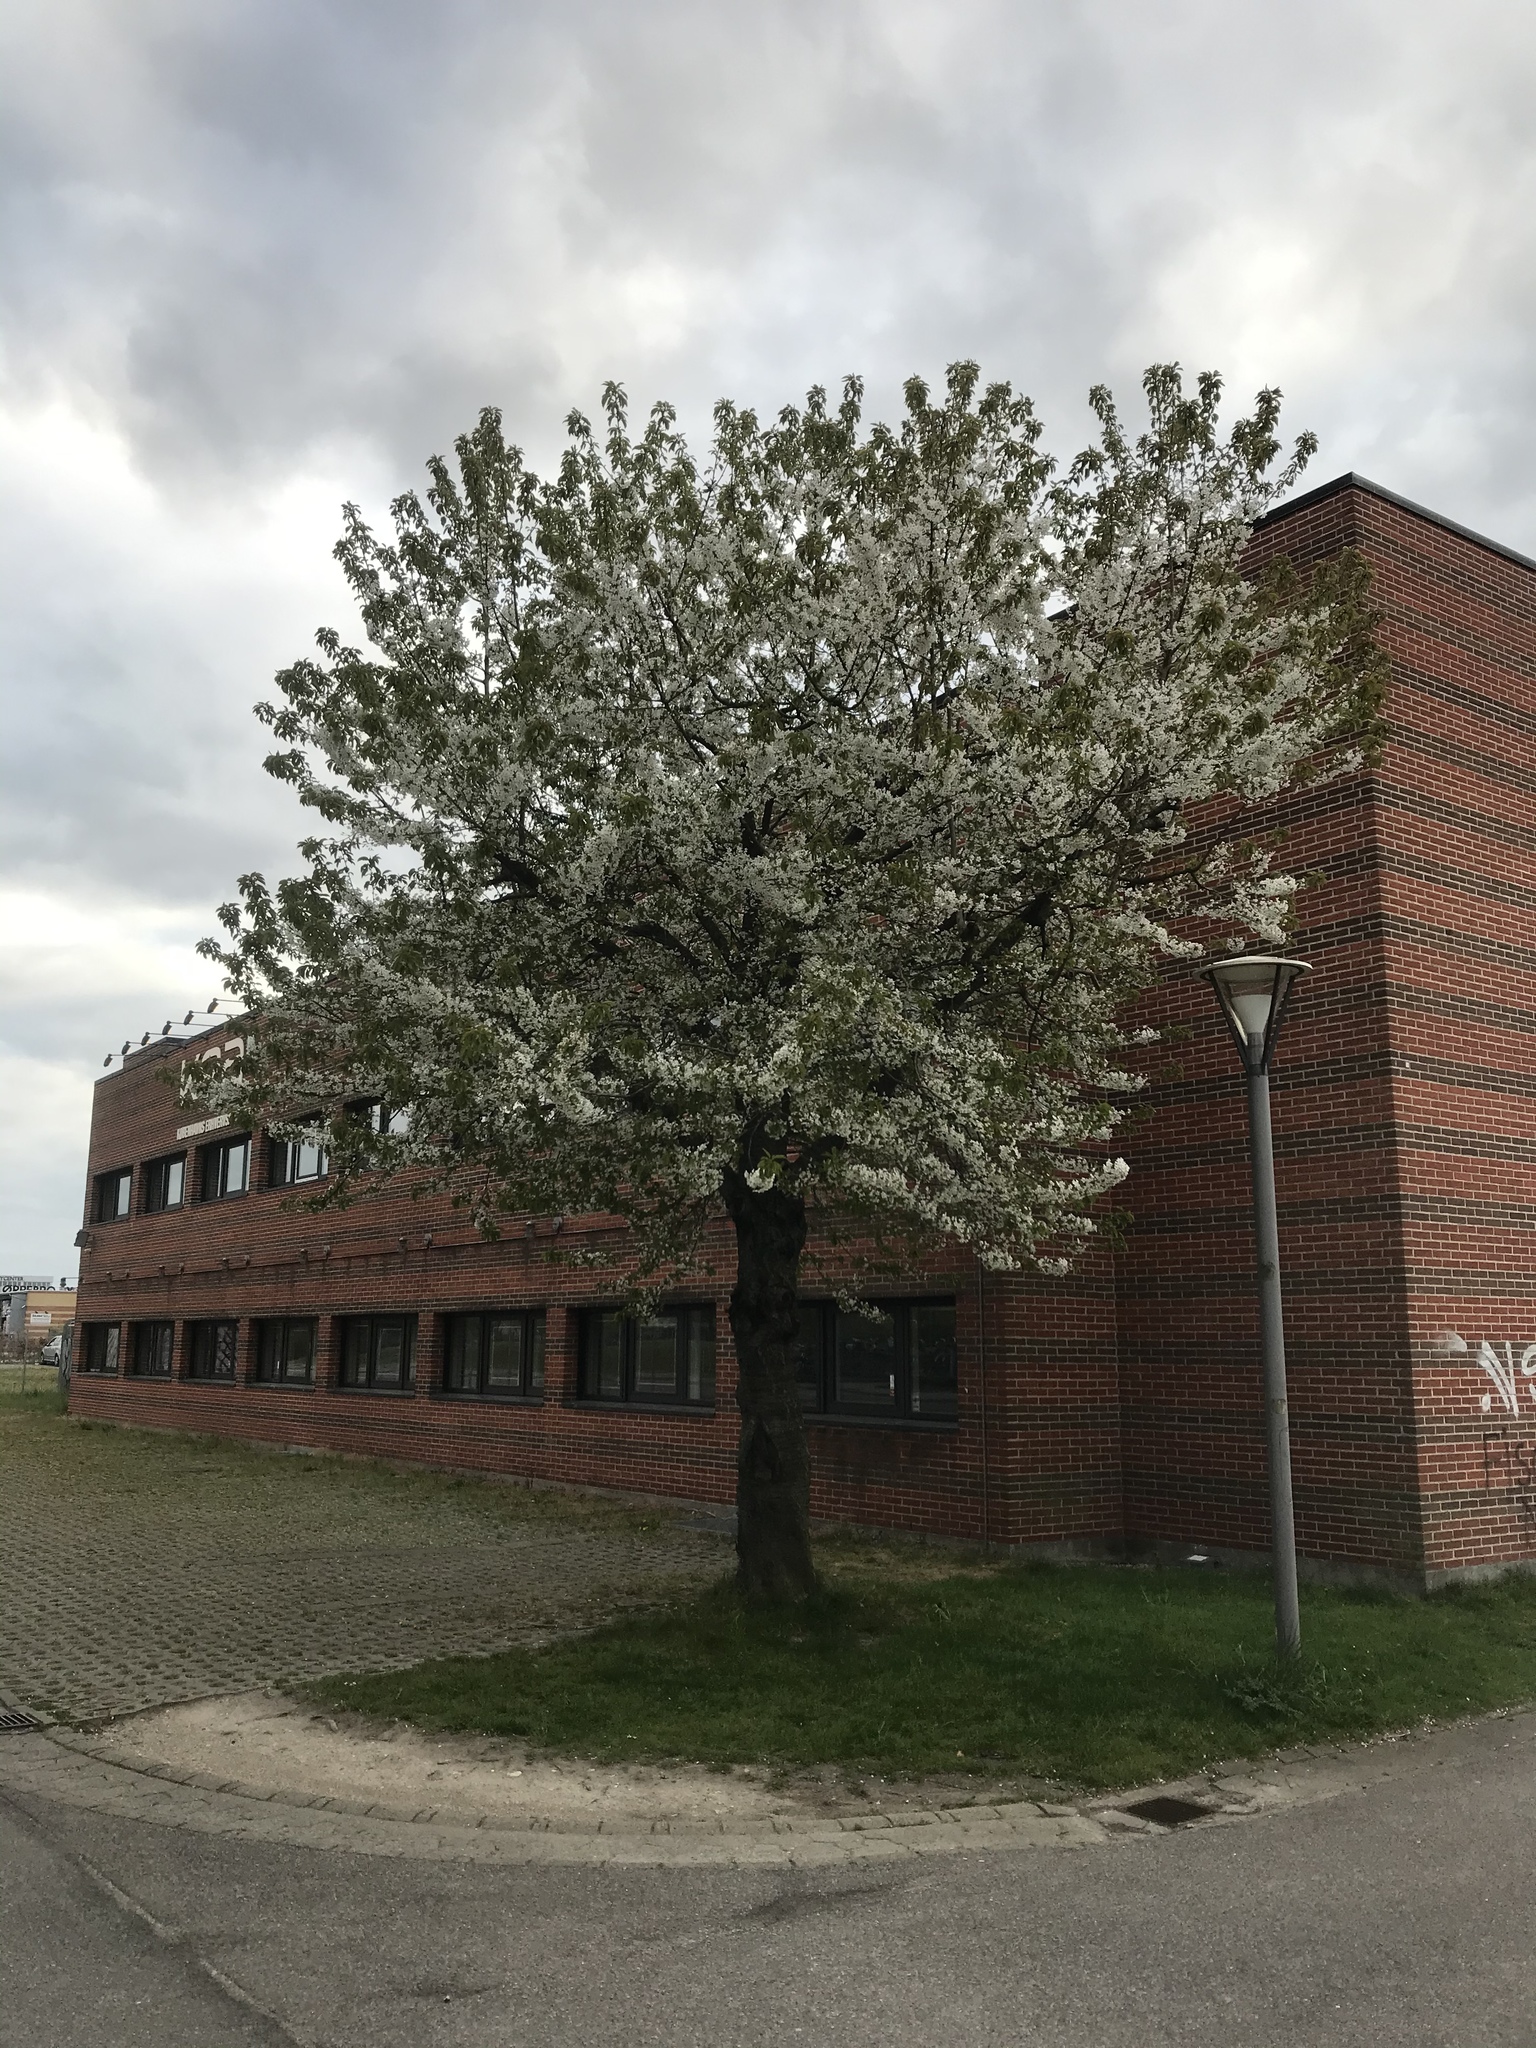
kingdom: Plantae
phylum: Tracheophyta
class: Magnoliopsida
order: Rosales
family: Rosaceae
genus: Prunus
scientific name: Prunus avium
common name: Sweet cherry
